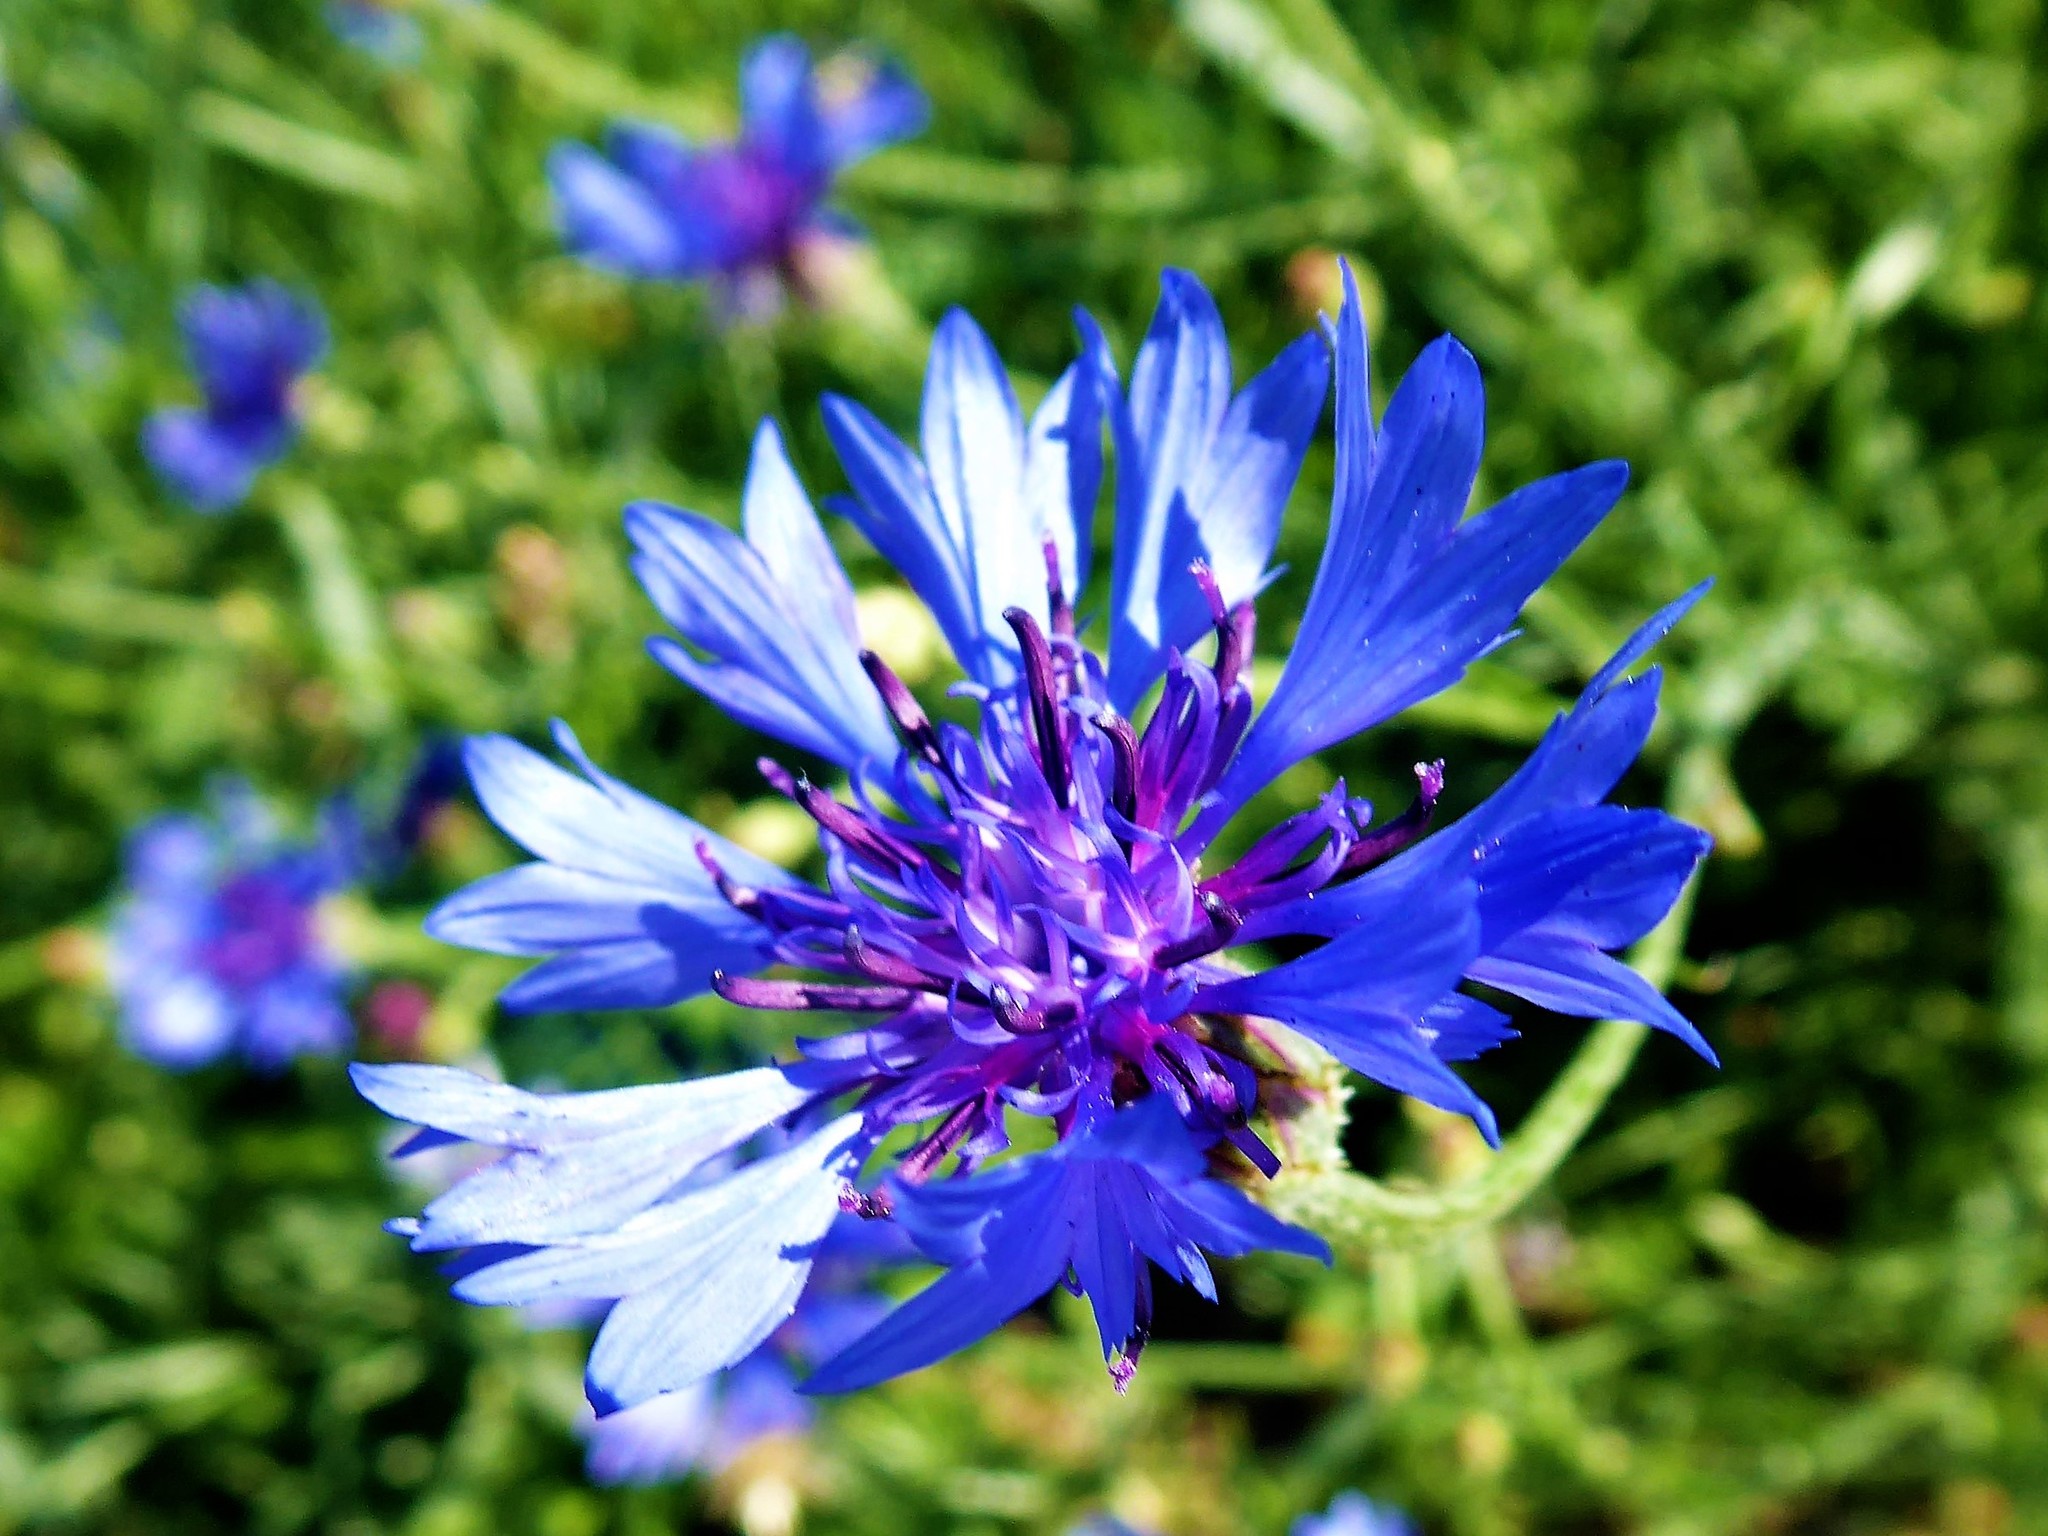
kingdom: Plantae
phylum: Tracheophyta
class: Magnoliopsida
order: Asterales
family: Asteraceae
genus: Centaurea
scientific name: Centaurea cyanus
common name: Cornflower
